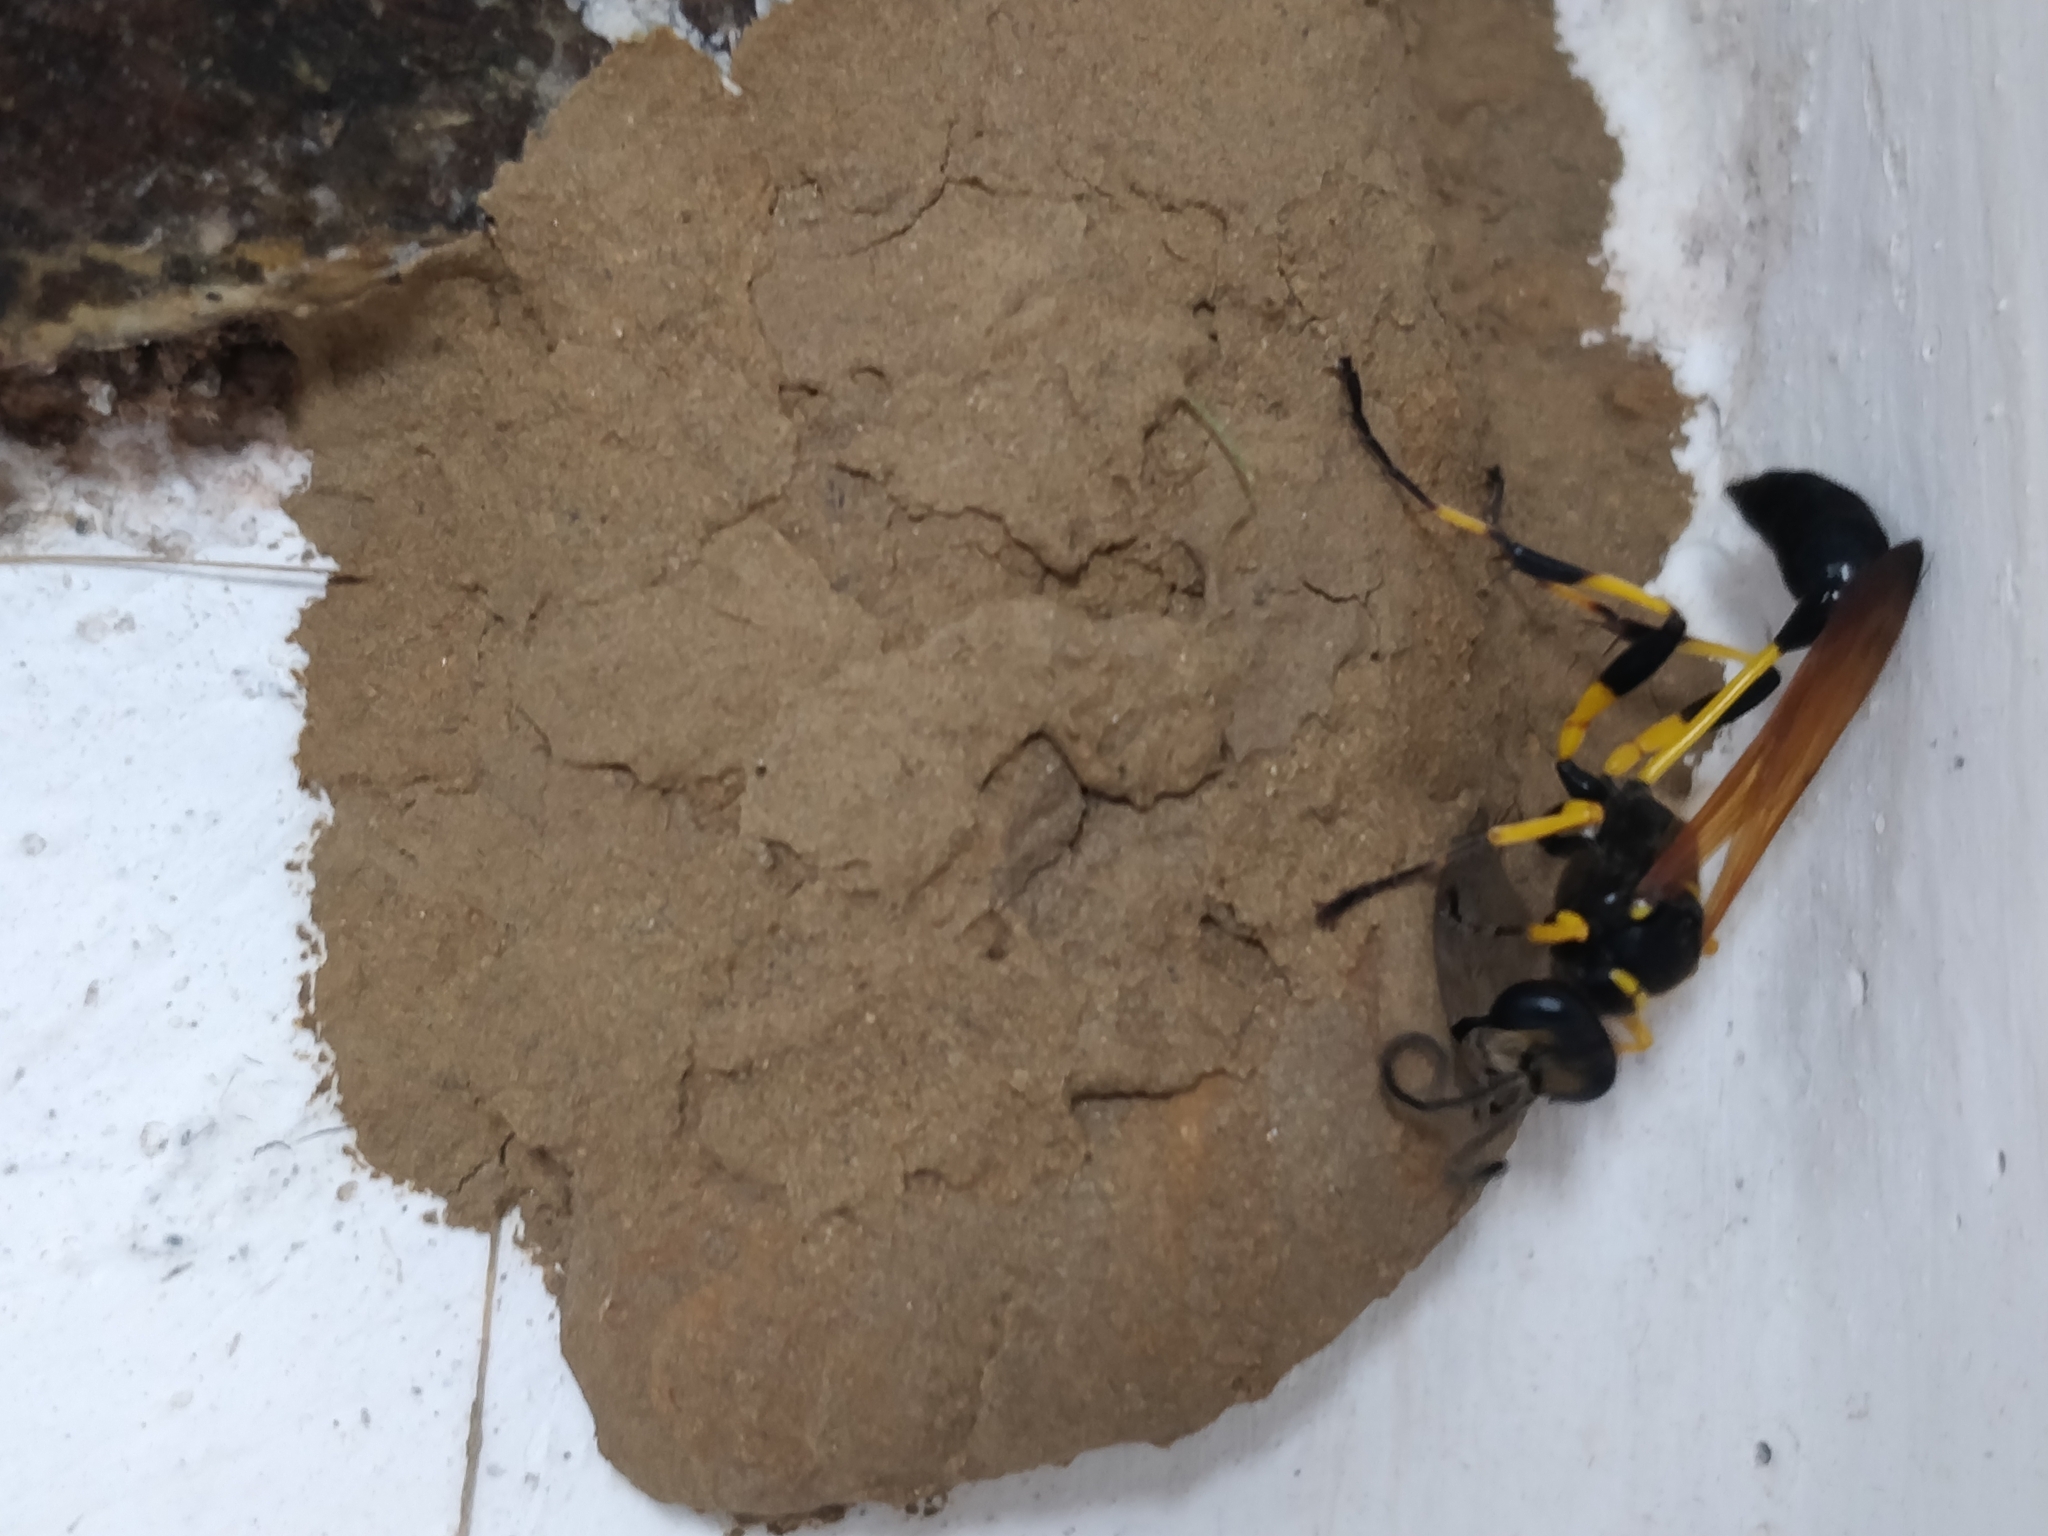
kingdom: Animalia
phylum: Arthropoda
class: Insecta
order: Hymenoptera
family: Sphecidae
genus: Sceliphron
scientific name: Sceliphron madraspatanum
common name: Mud dauber
